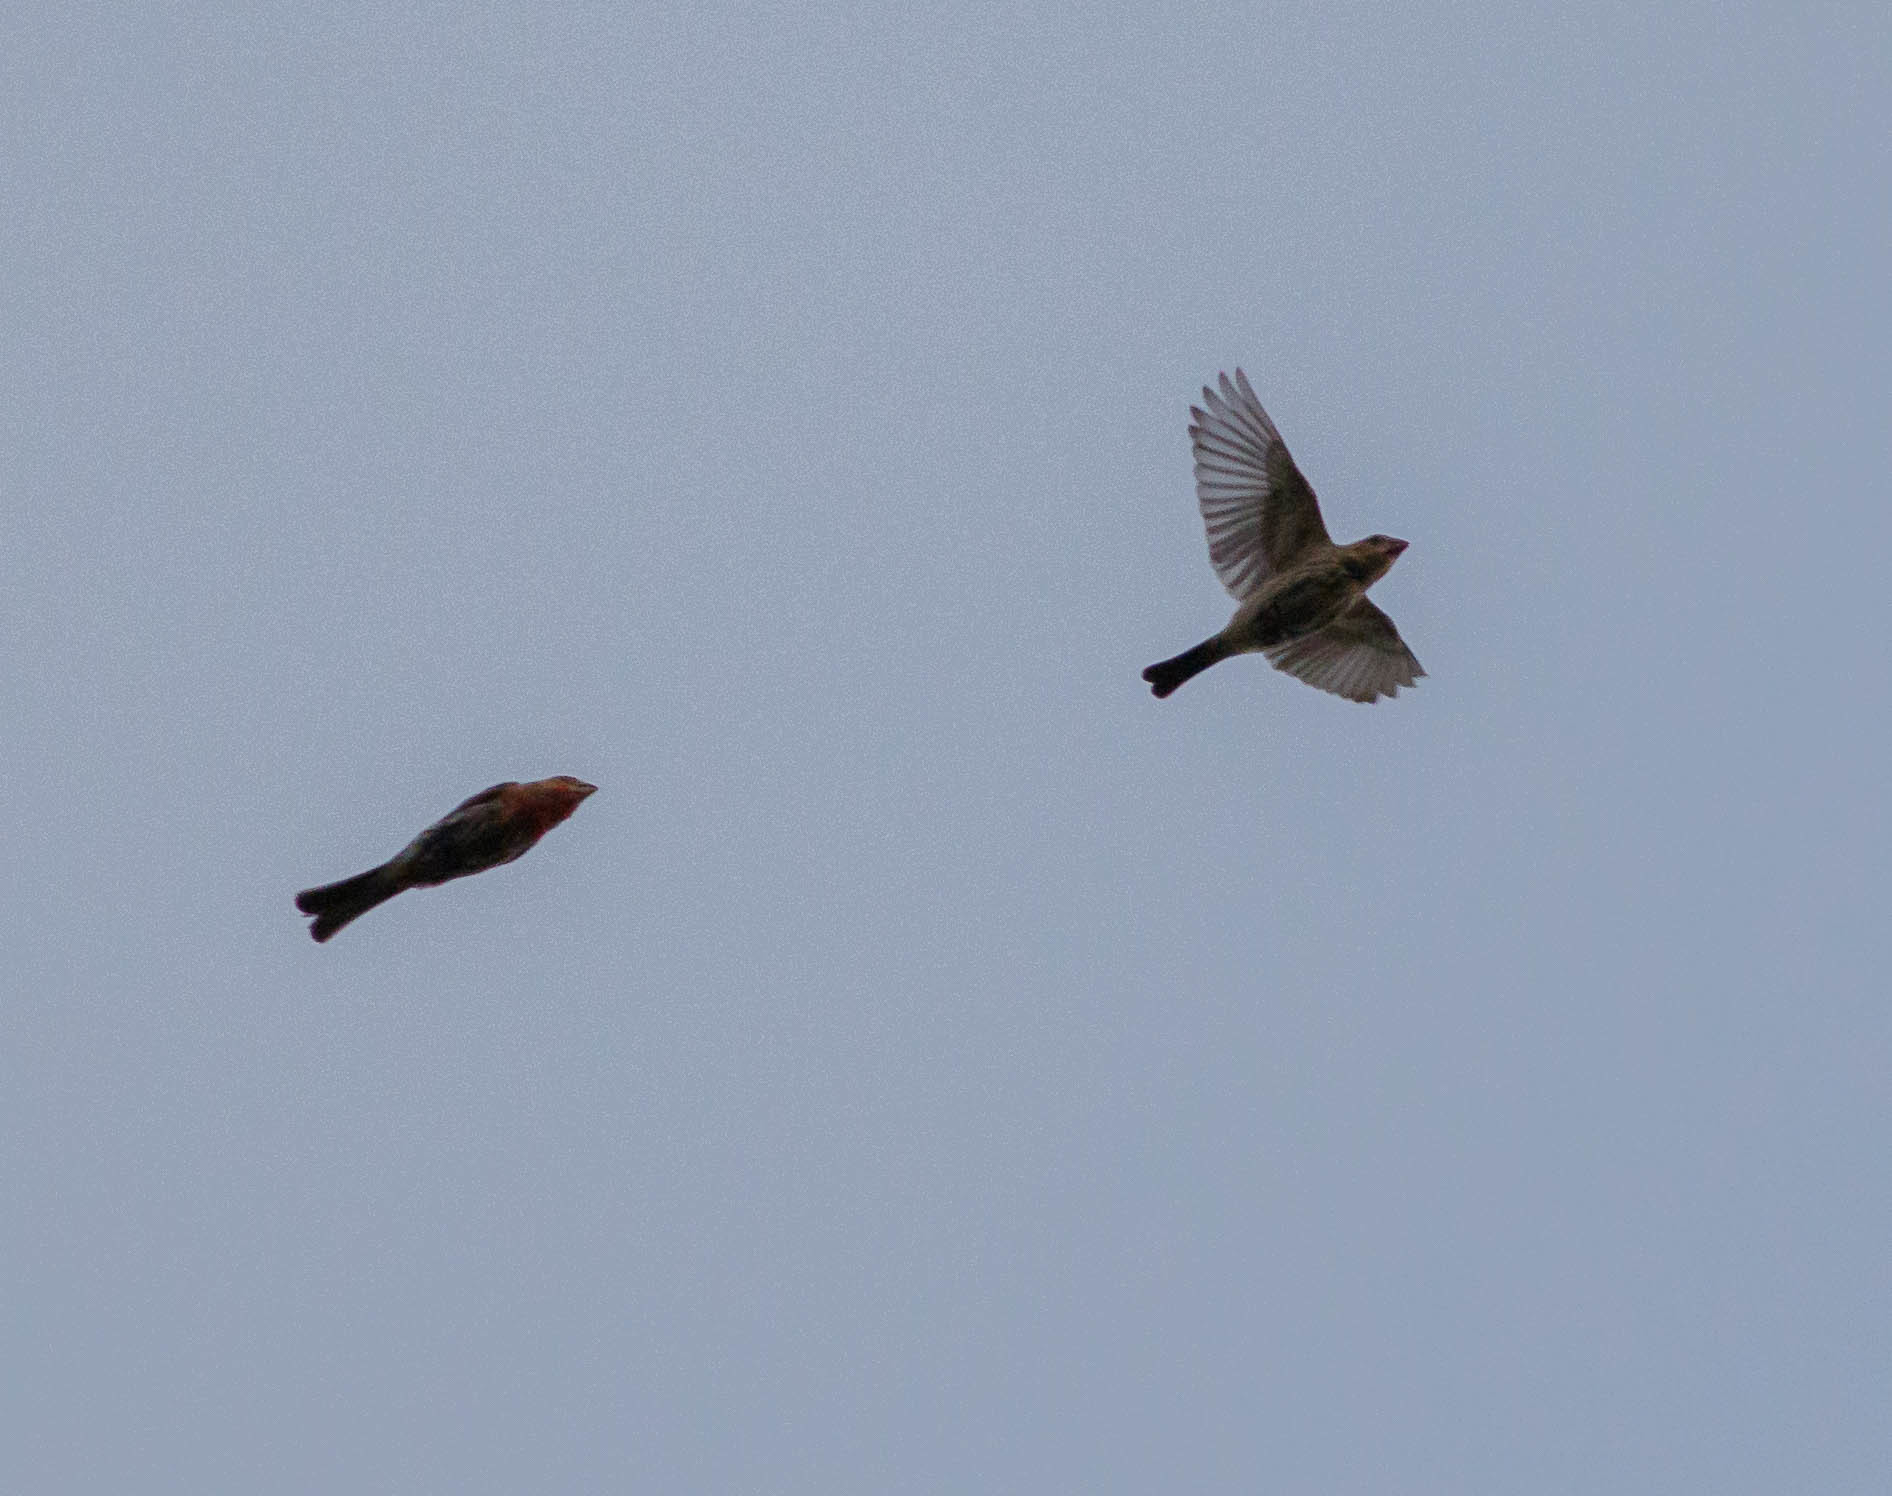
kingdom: Animalia
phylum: Chordata
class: Aves
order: Passeriformes
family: Fringillidae
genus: Haemorhous
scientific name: Haemorhous mexicanus
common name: House finch
